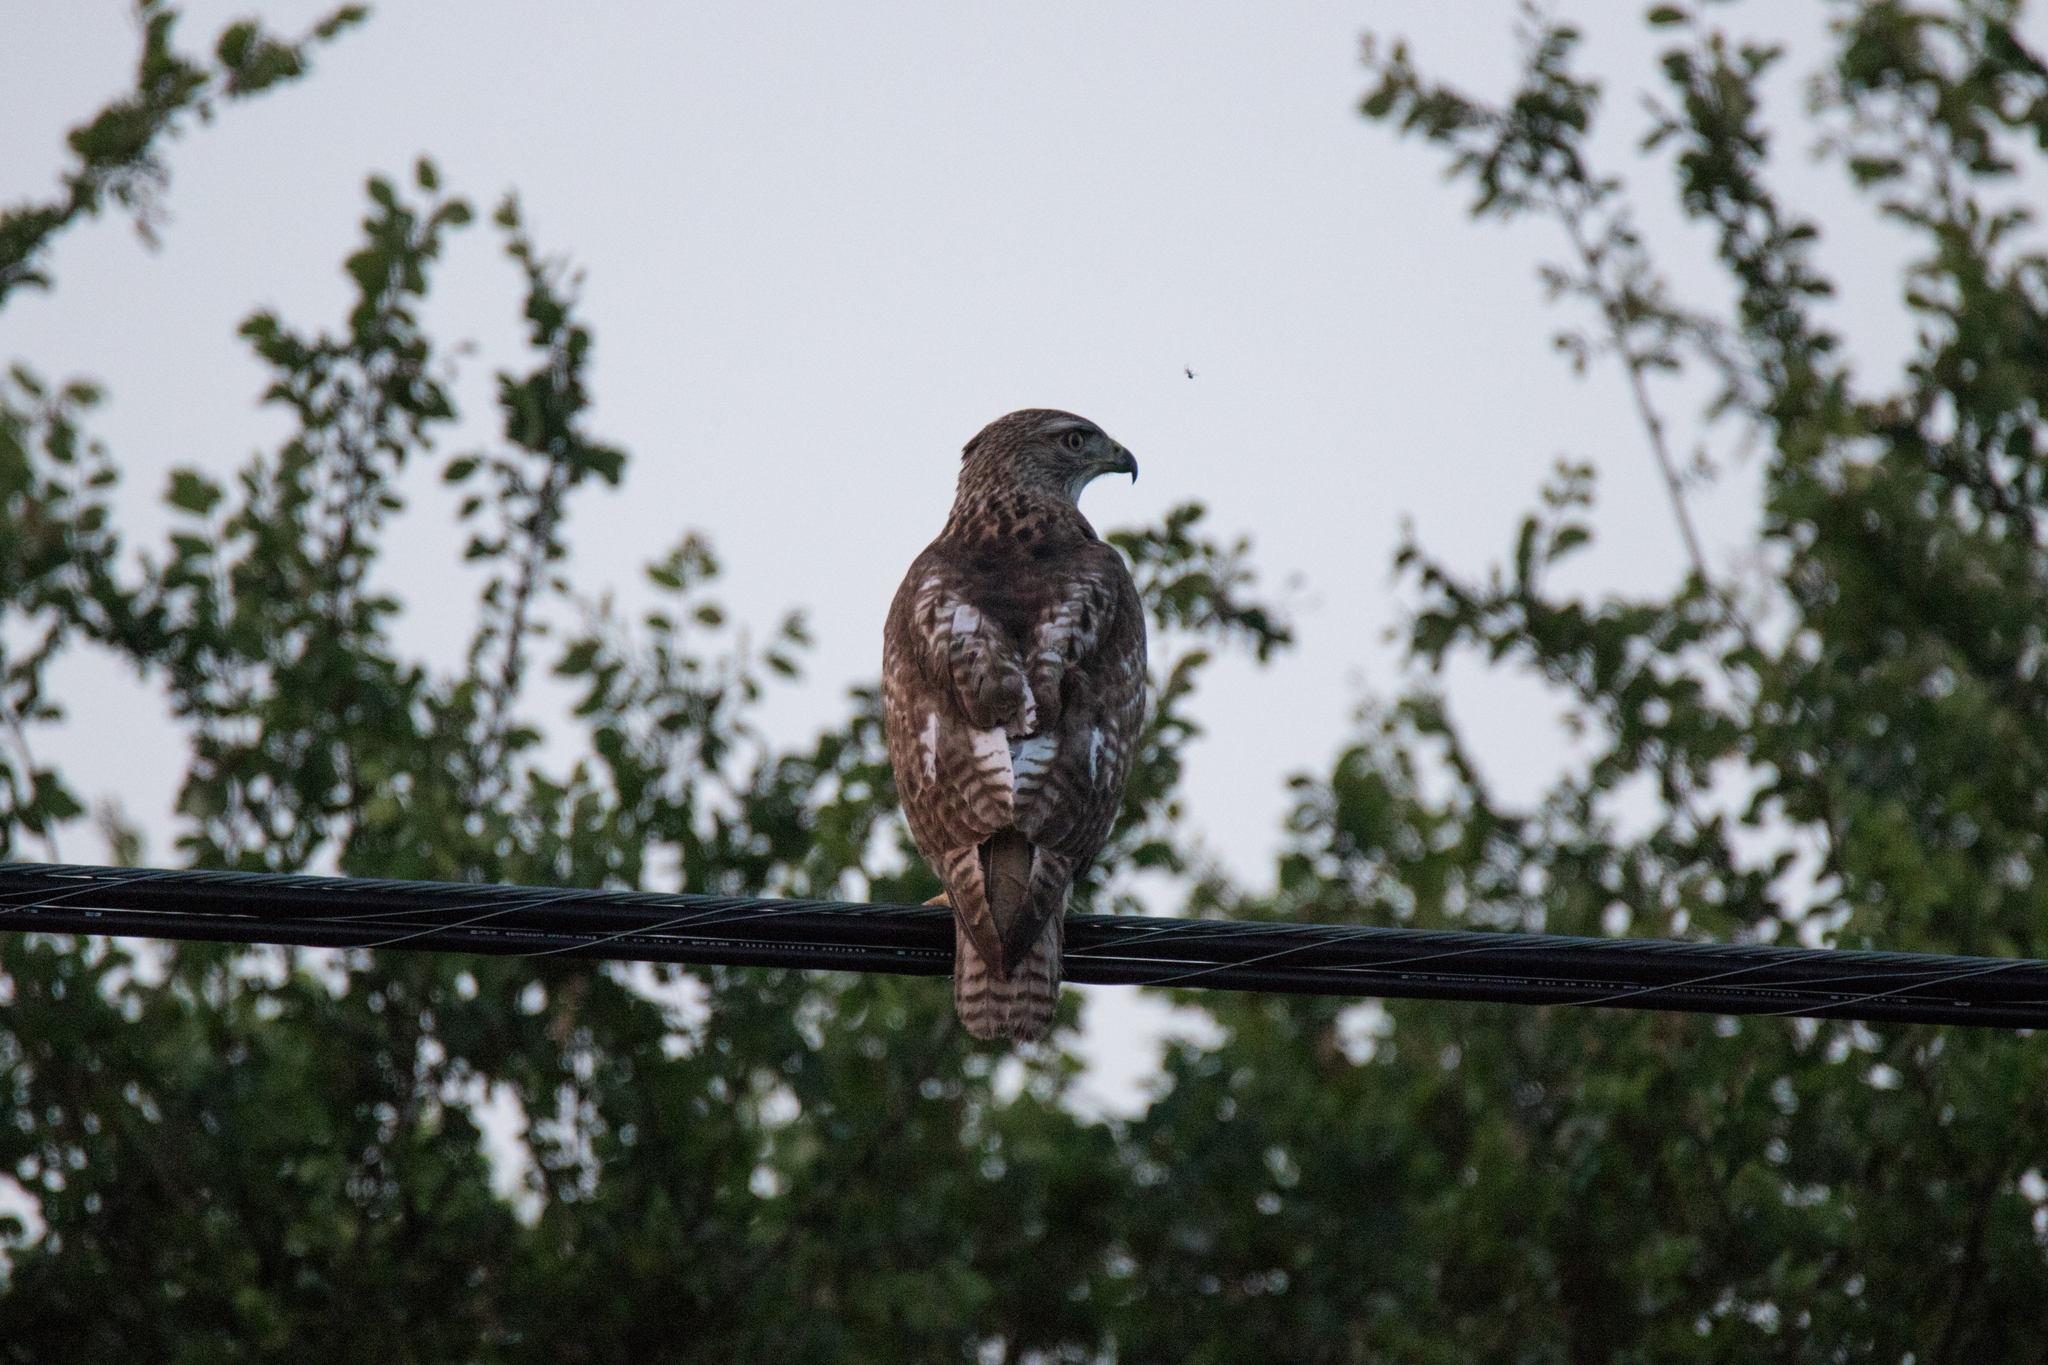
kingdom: Animalia
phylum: Chordata
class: Aves
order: Accipitriformes
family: Accipitridae
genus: Buteo
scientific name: Buteo jamaicensis
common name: Red-tailed hawk
